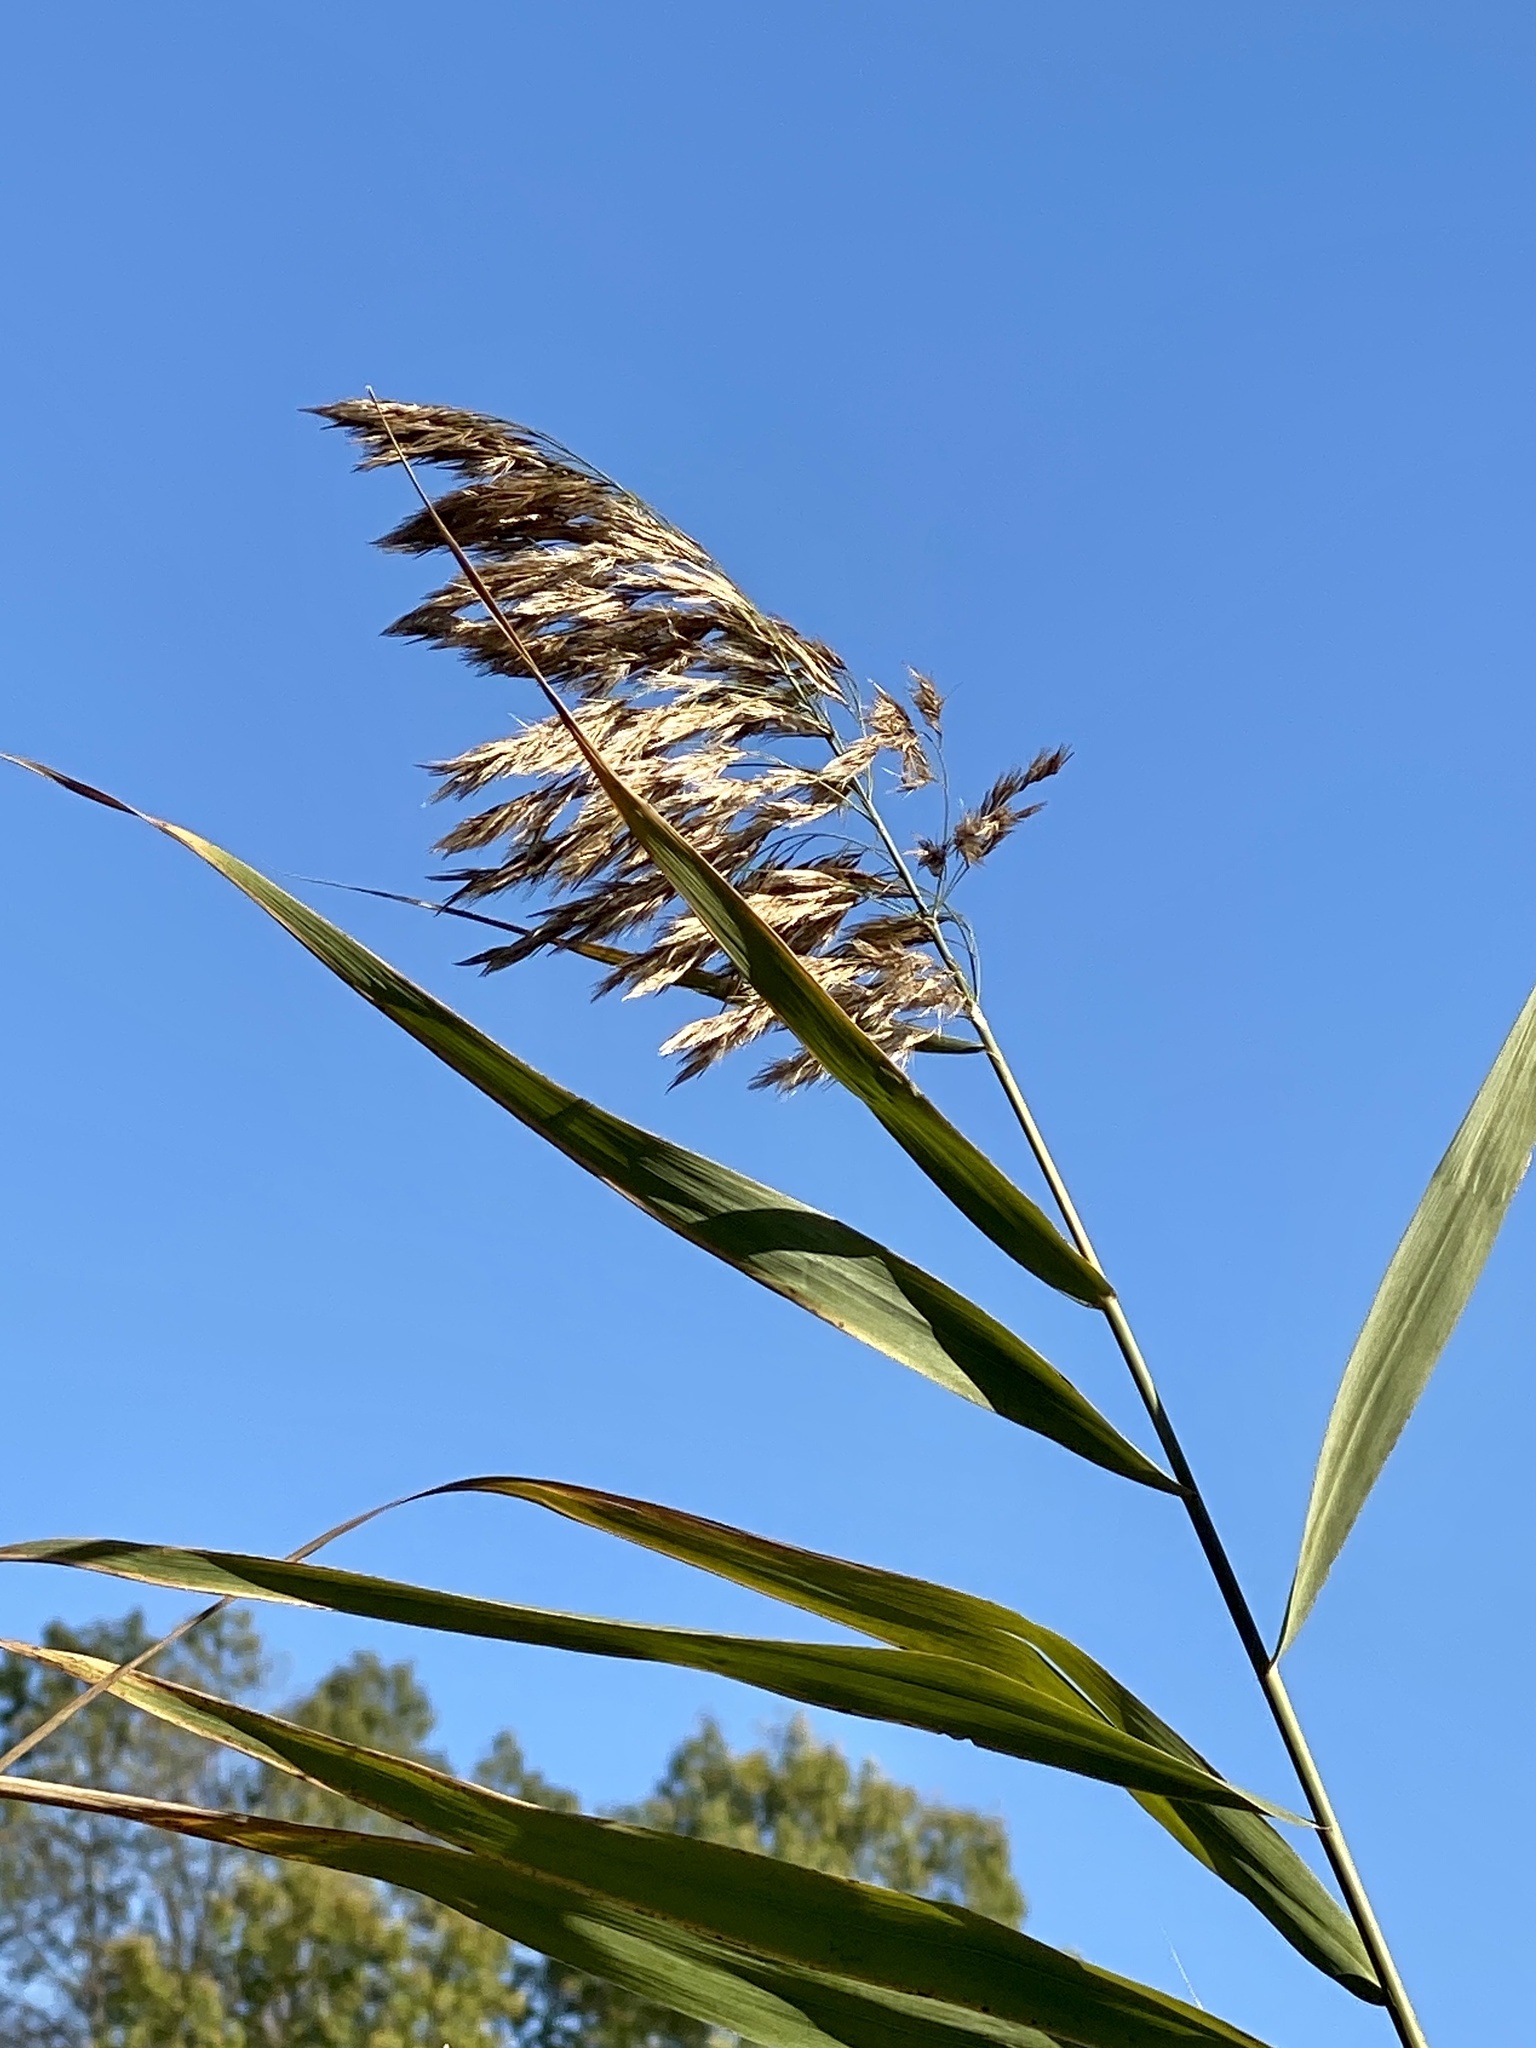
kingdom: Plantae
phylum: Tracheophyta
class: Liliopsida
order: Poales
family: Poaceae
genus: Phragmites
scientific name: Phragmites australis
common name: Common reed
